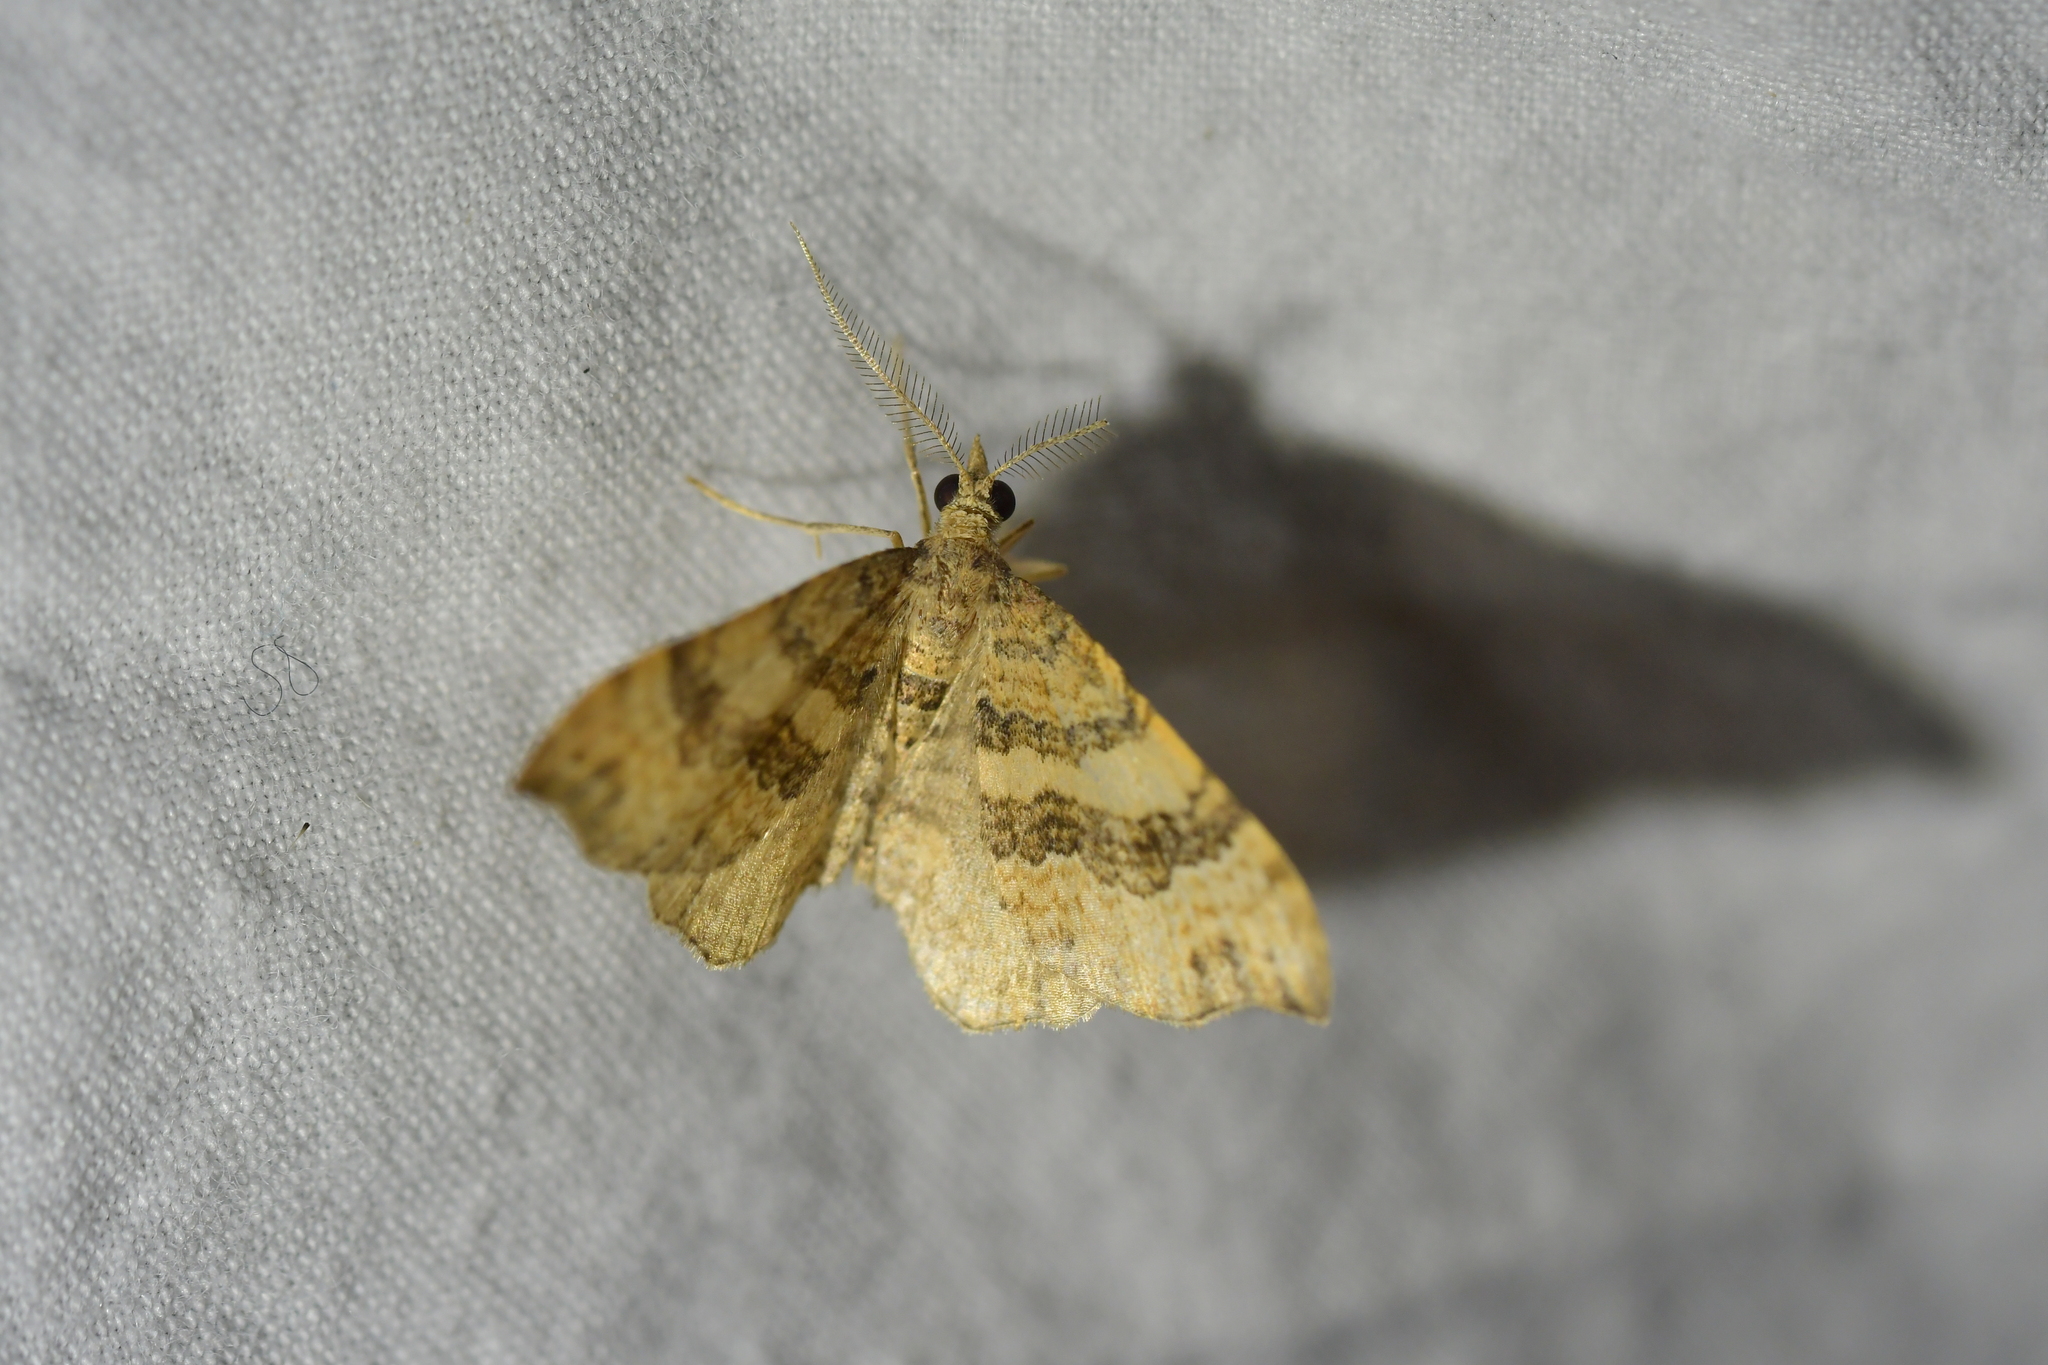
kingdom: Animalia
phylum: Arthropoda
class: Insecta
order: Lepidoptera
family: Geometridae
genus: Homodotis
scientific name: Homodotis megaspilata
